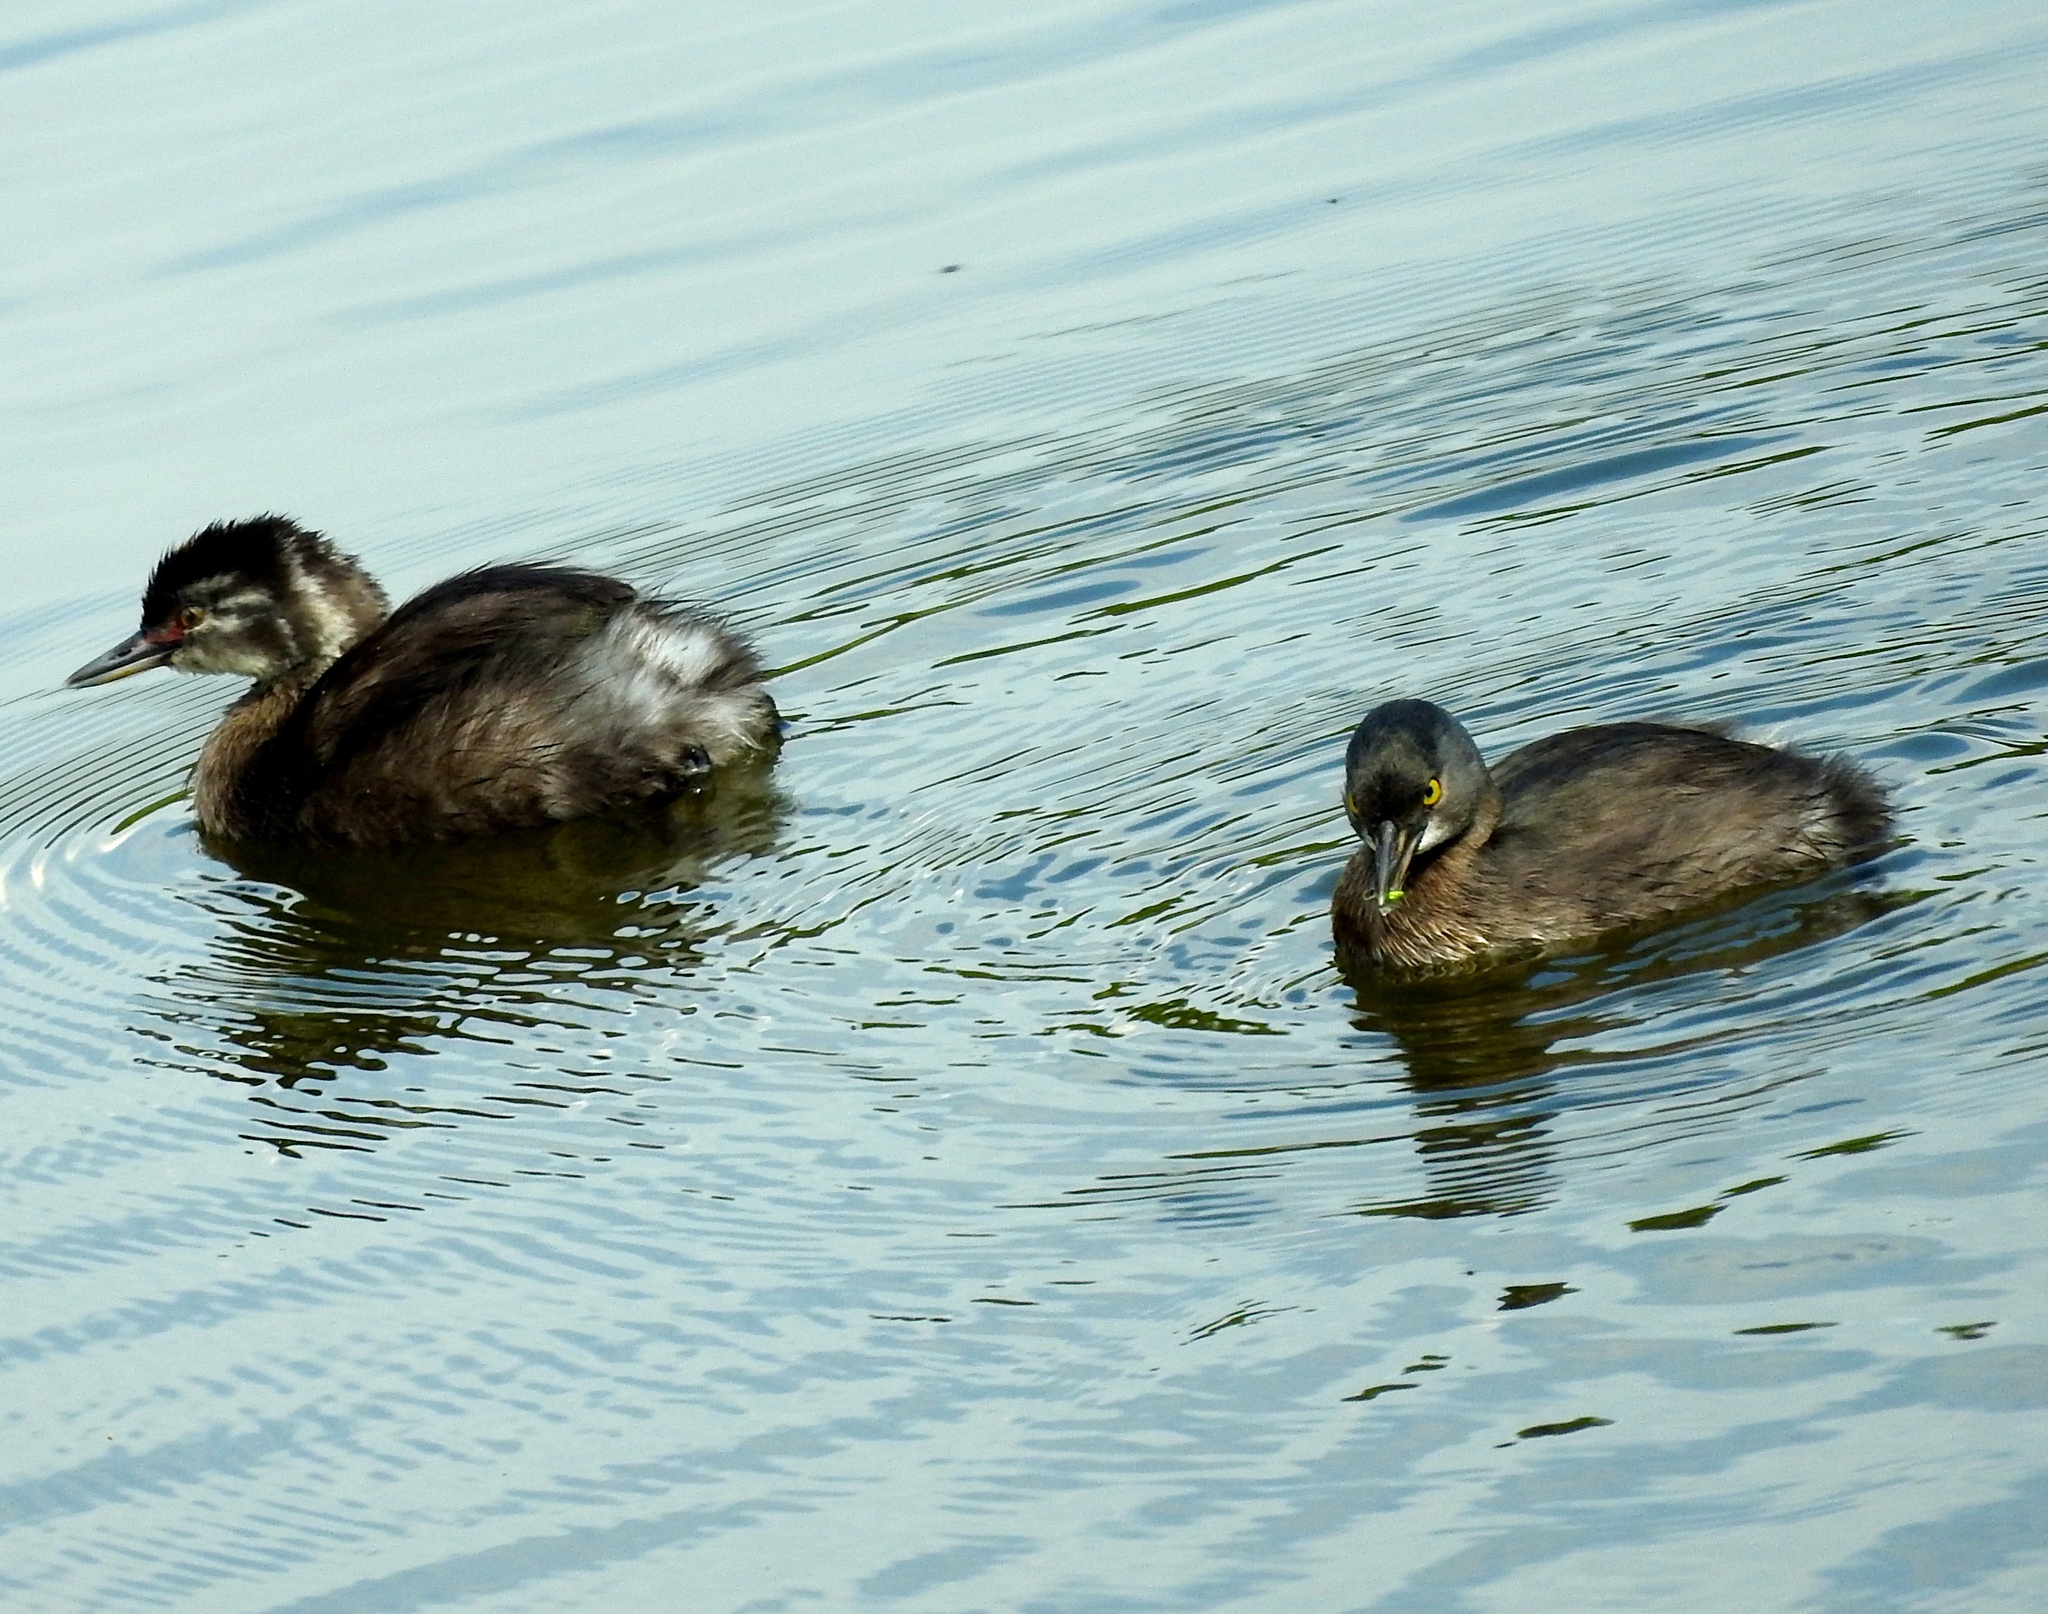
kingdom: Animalia
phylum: Chordata
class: Aves
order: Podicipediformes
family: Podicipedidae
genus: Tachybaptus
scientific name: Tachybaptus dominicus
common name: Least grebe
